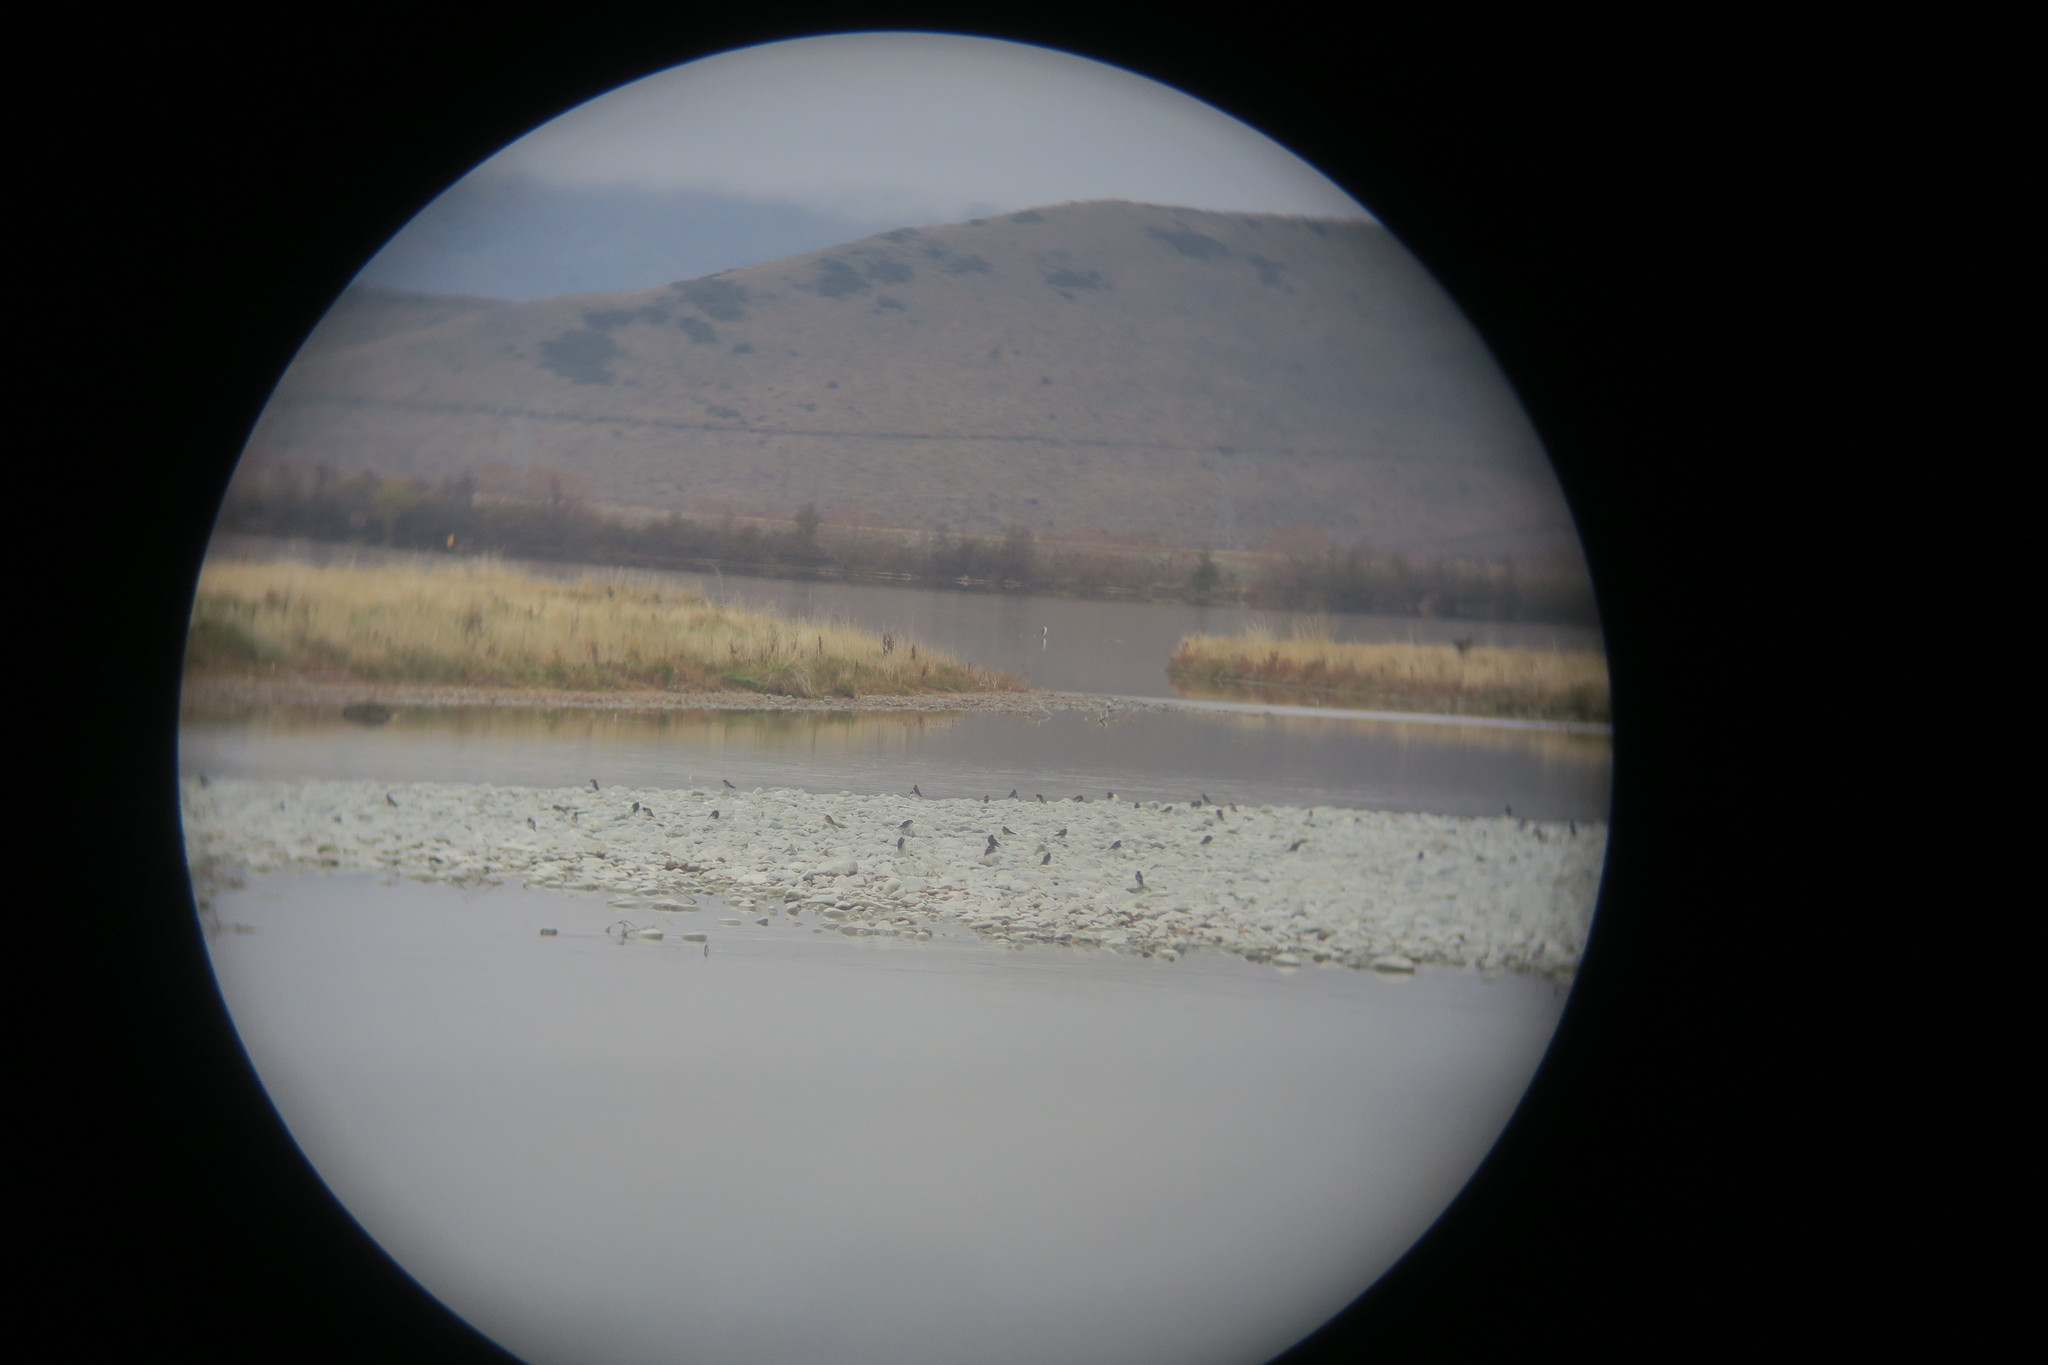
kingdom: Animalia
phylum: Chordata
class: Aves
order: Passeriformes
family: Hirundinidae
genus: Hirundo
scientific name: Hirundo neoxena
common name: Welcome swallow
